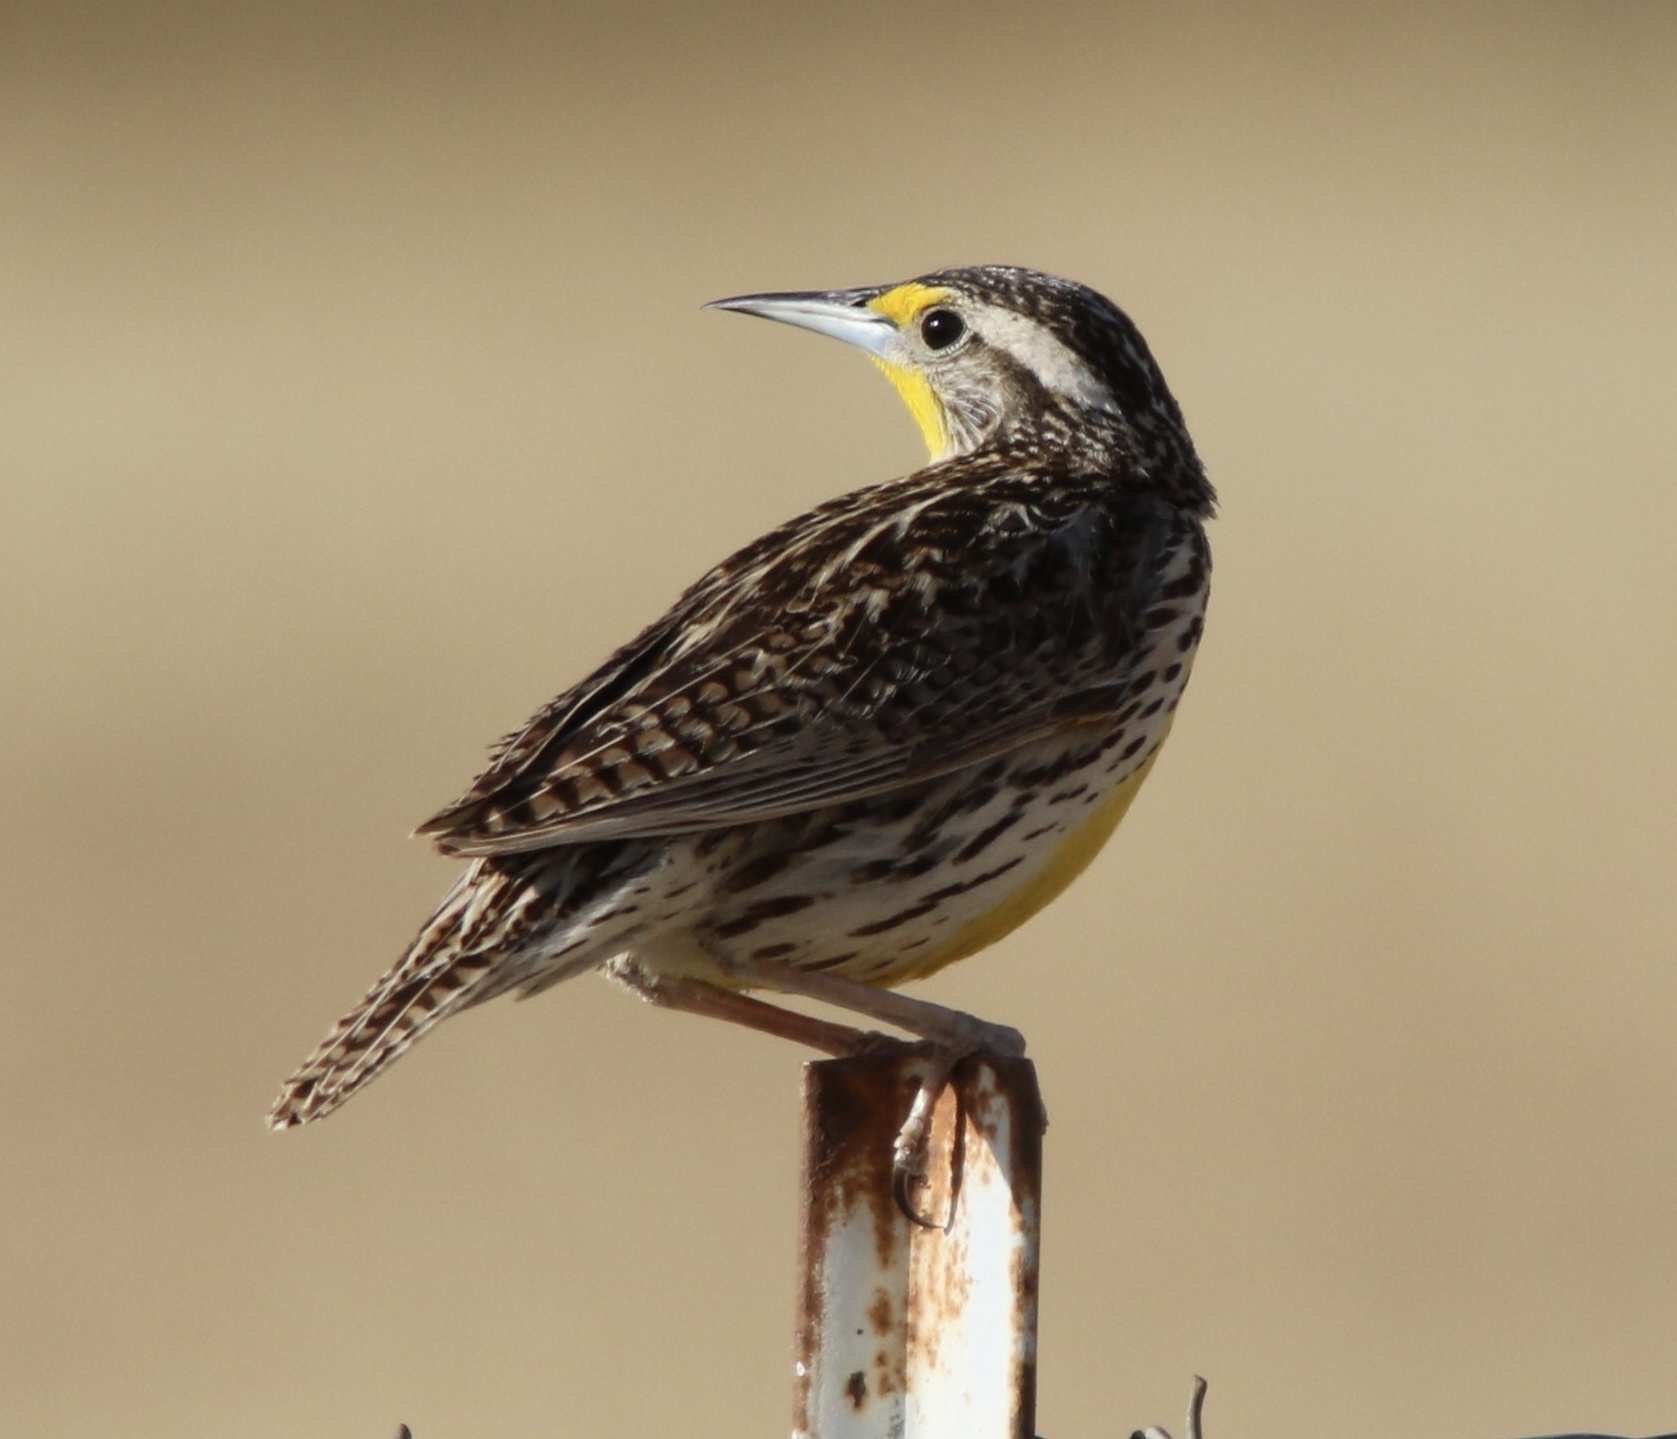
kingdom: Animalia
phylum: Chordata
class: Aves
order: Passeriformes
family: Icteridae
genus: Sturnella
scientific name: Sturnella neglecta
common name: Western meadowlark
